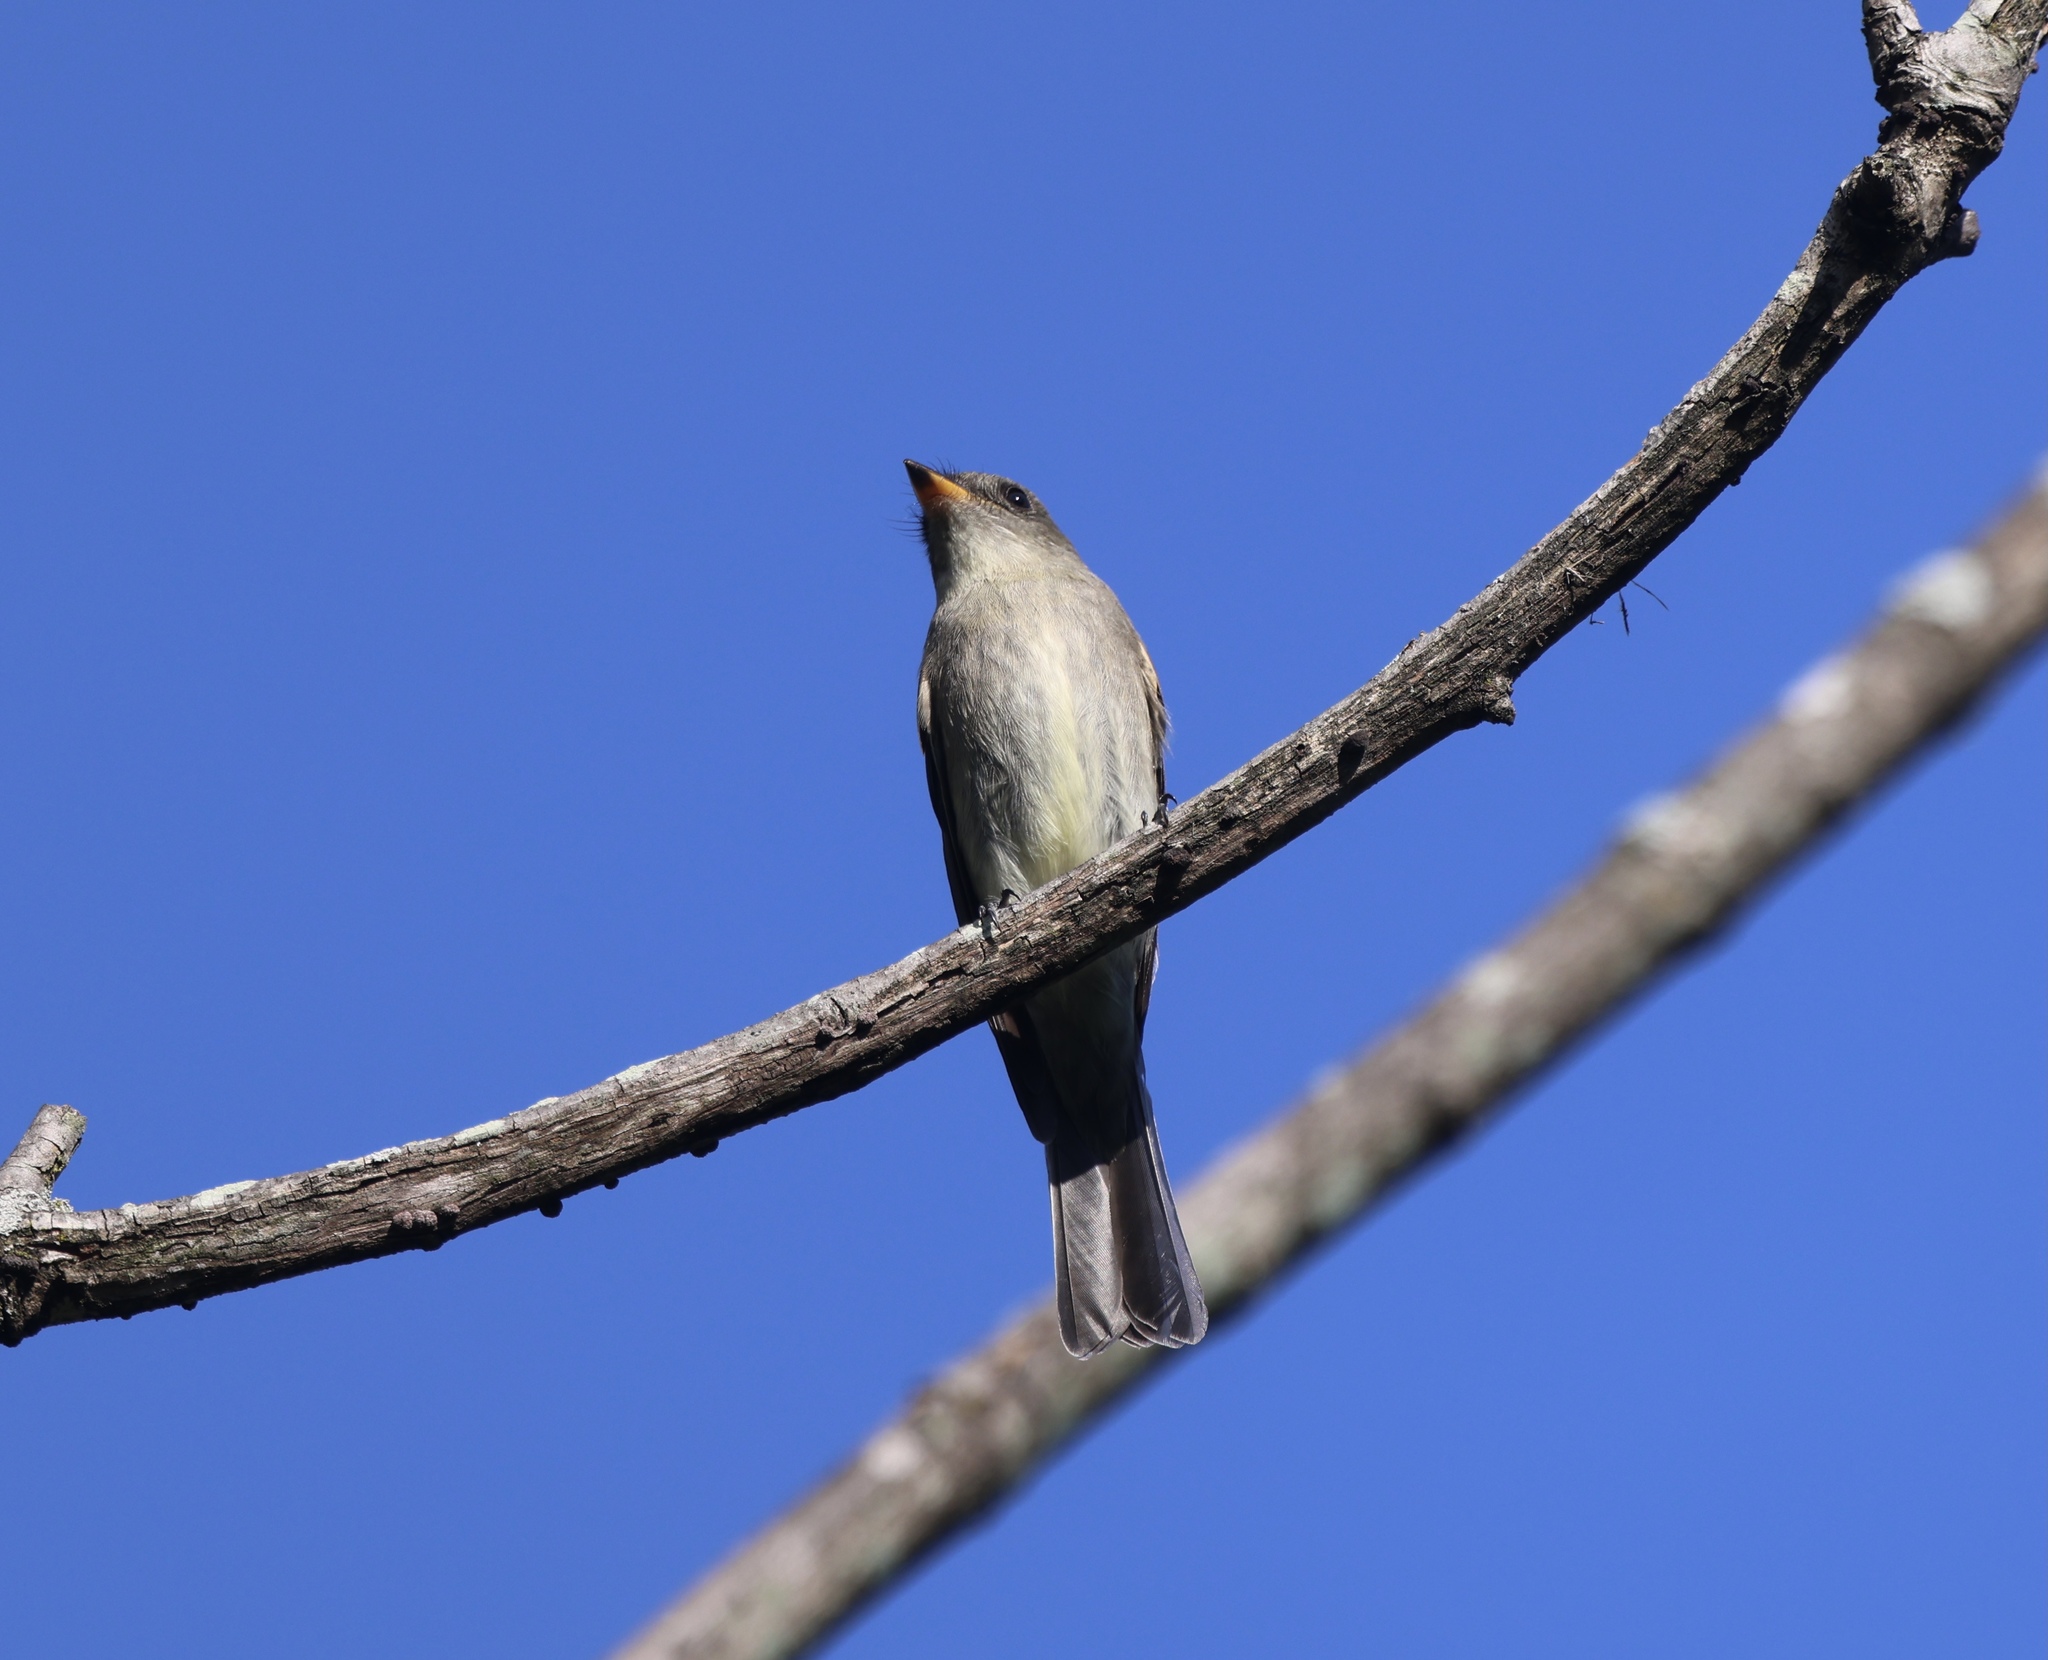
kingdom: Animalia
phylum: Chordata
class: Aves
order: Passeriformes
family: Tyrannidae
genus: Contopus
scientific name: Contopus virens
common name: Eastern wood-pewee
